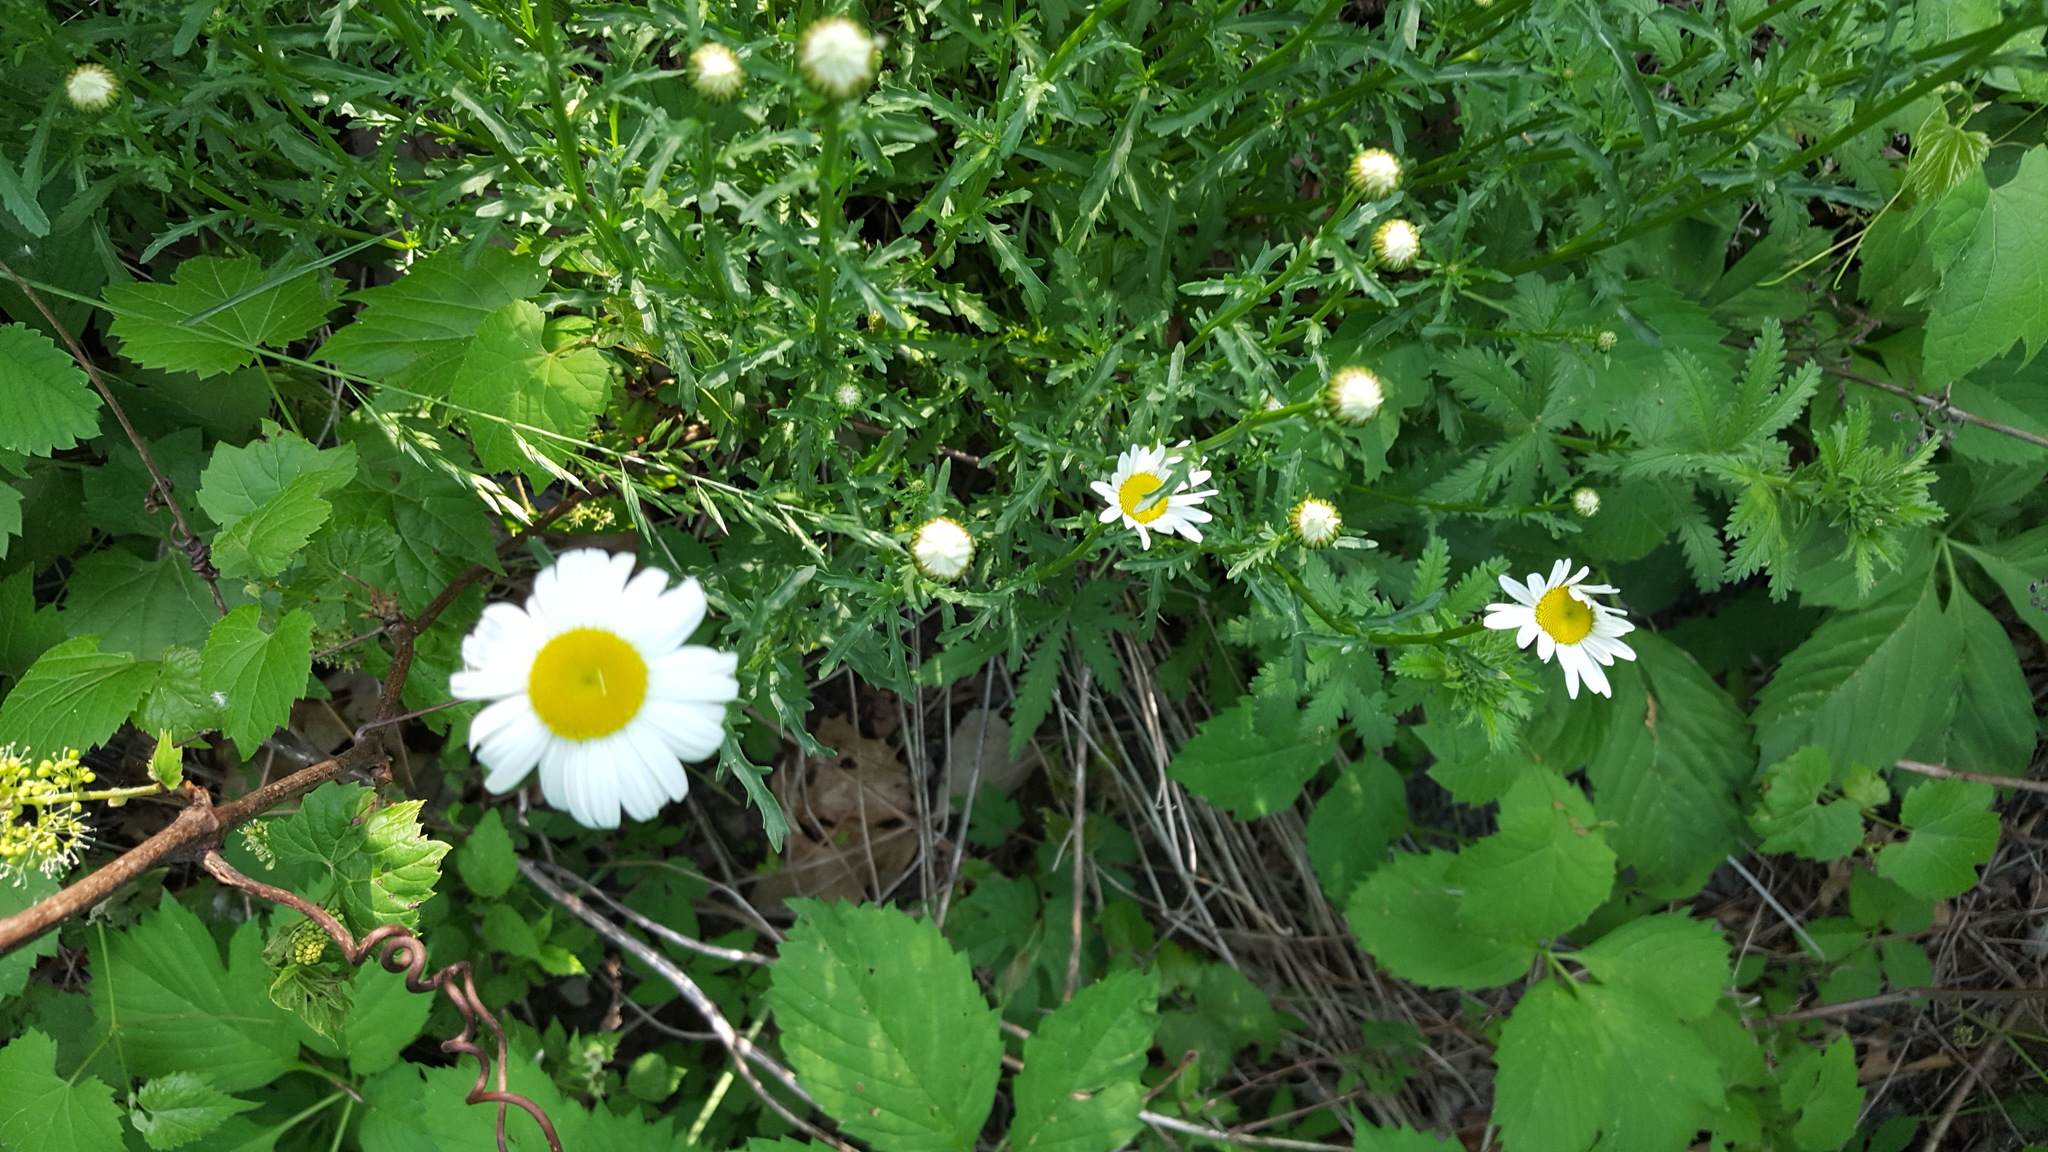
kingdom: Plantae
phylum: Tracheophyta
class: Magnoliopsida
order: Asterales
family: Asteraceae
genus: Leucanthemum
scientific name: Leucanthemum vulgare
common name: Oxeye daisy
